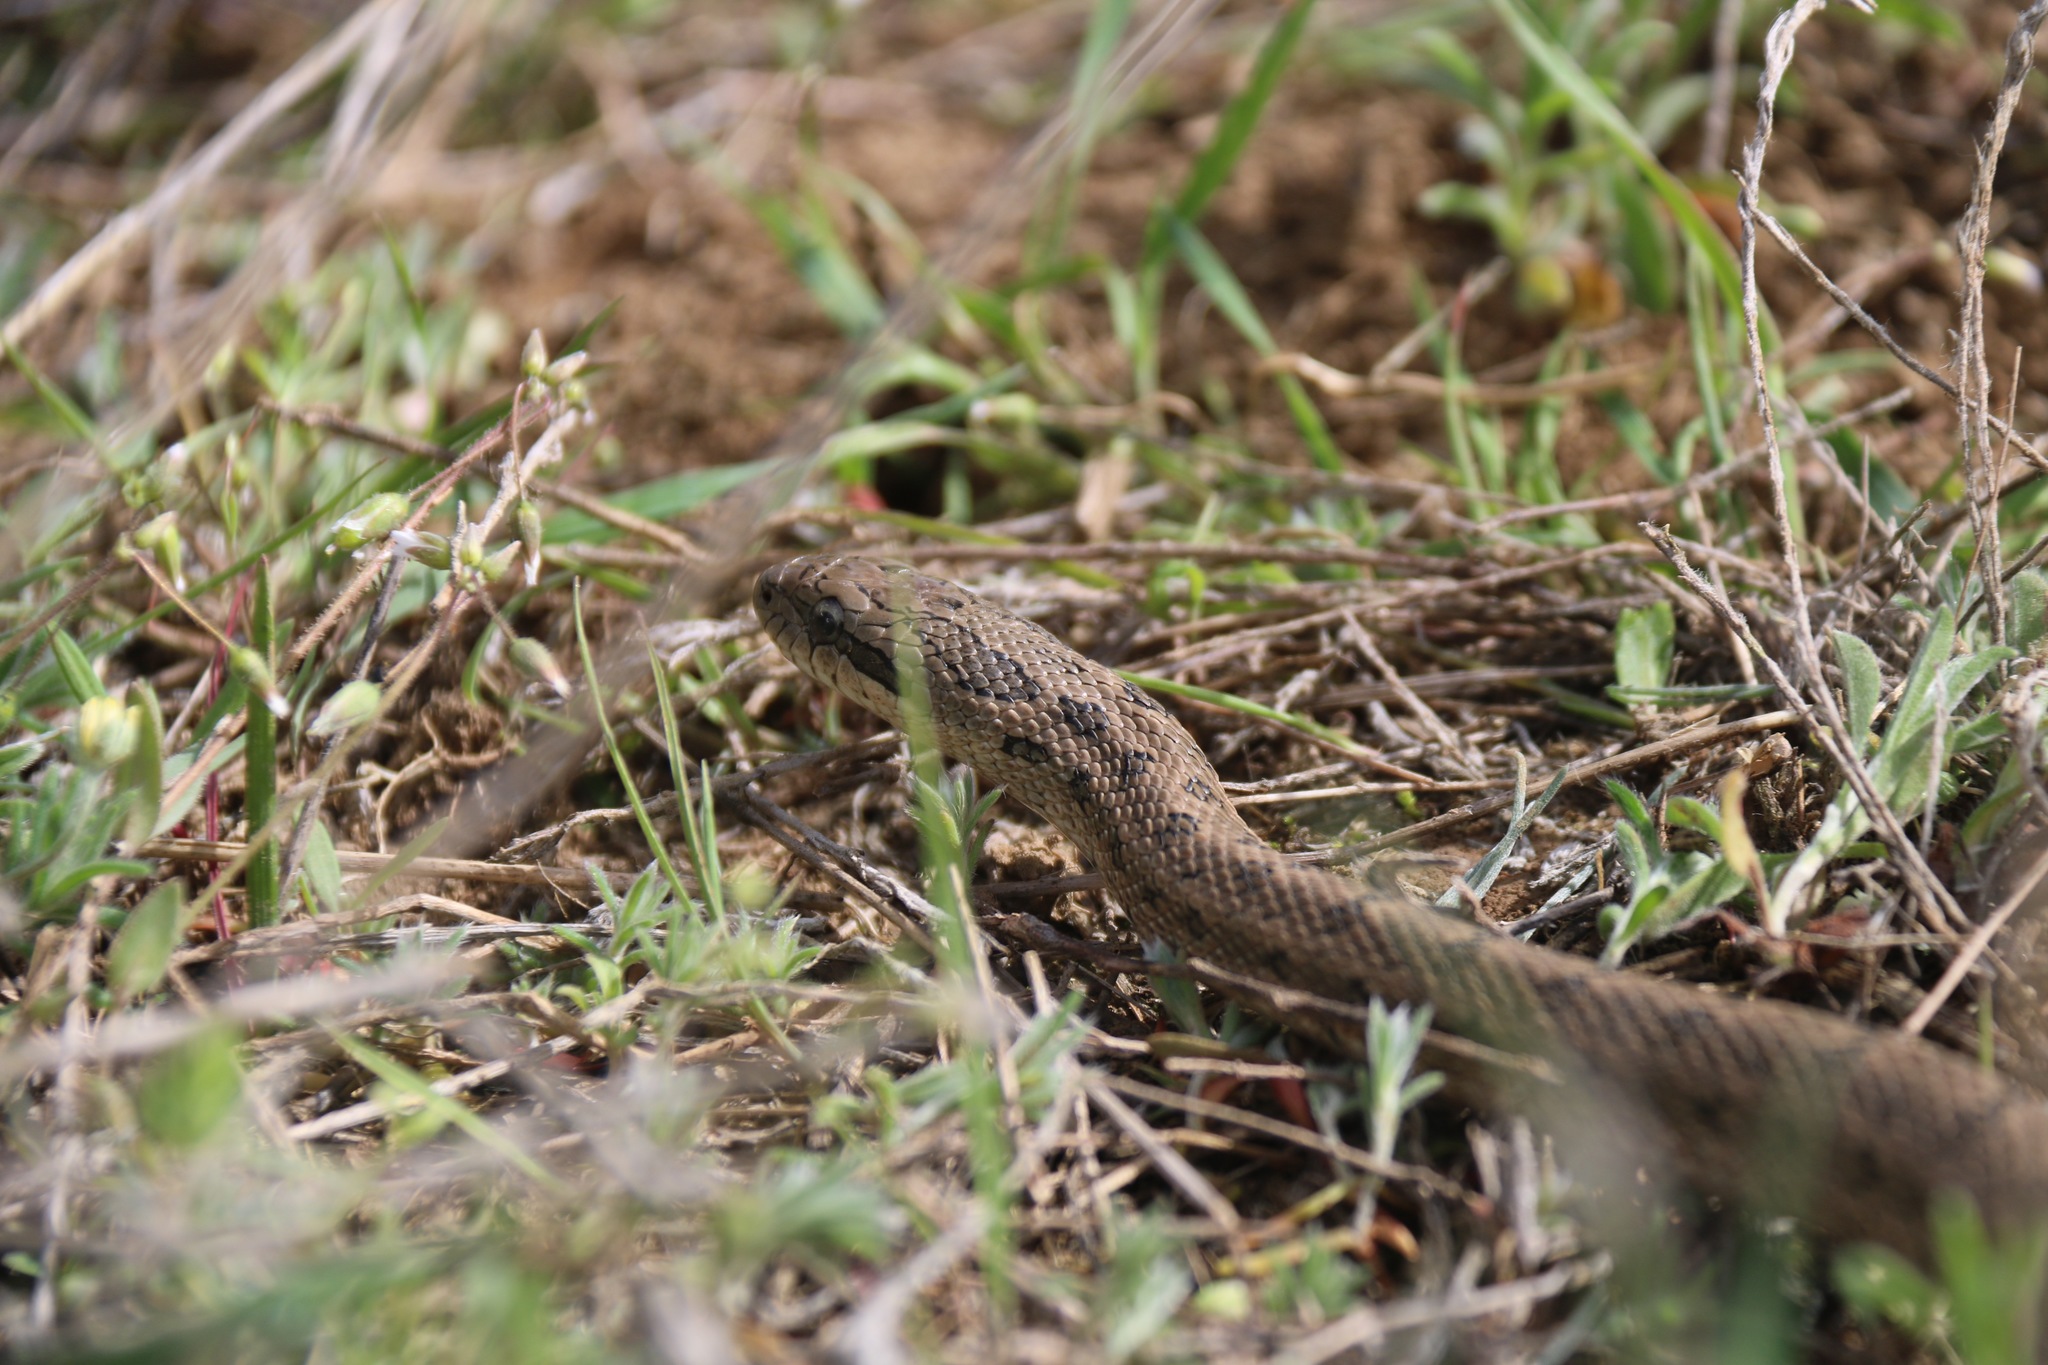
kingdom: Animalia
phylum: Chordata
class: Squamata
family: Colubridae
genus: Elaphe
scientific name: Elaphe dione
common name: Dione ratsnake
